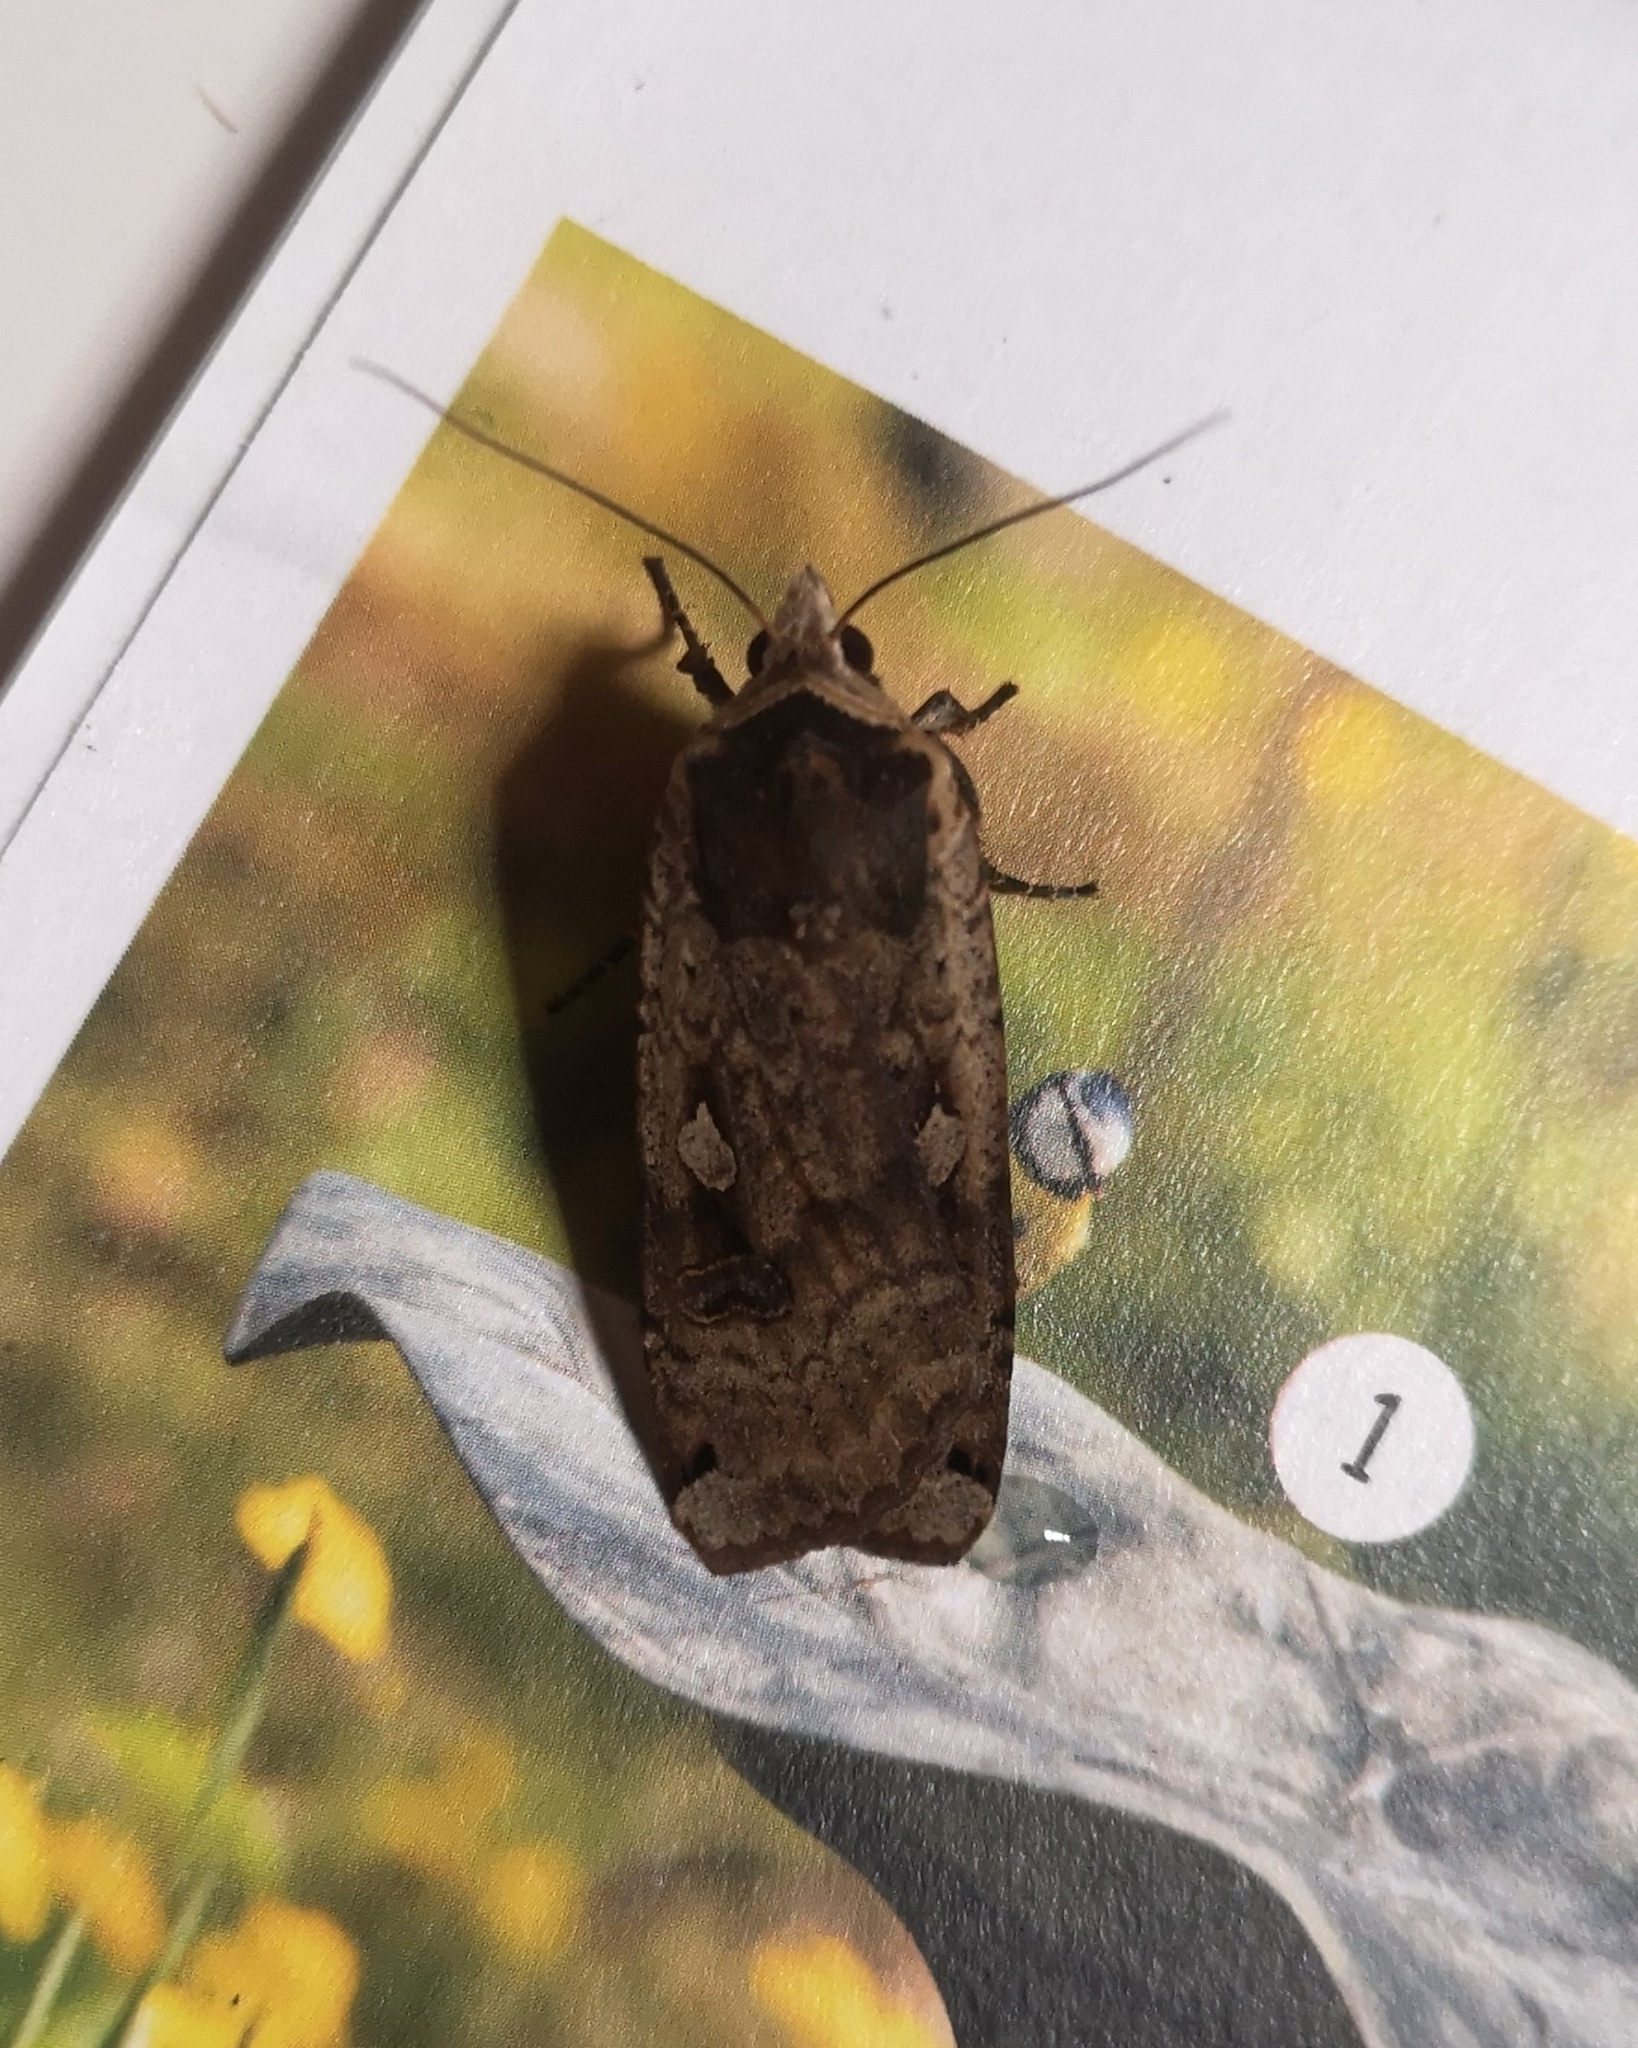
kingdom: Animalia
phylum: Arthropoda
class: Insecta
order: Lepidoptera
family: Noctuidae
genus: Noctua
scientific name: Noctua pronuba
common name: Large yellow underwing
